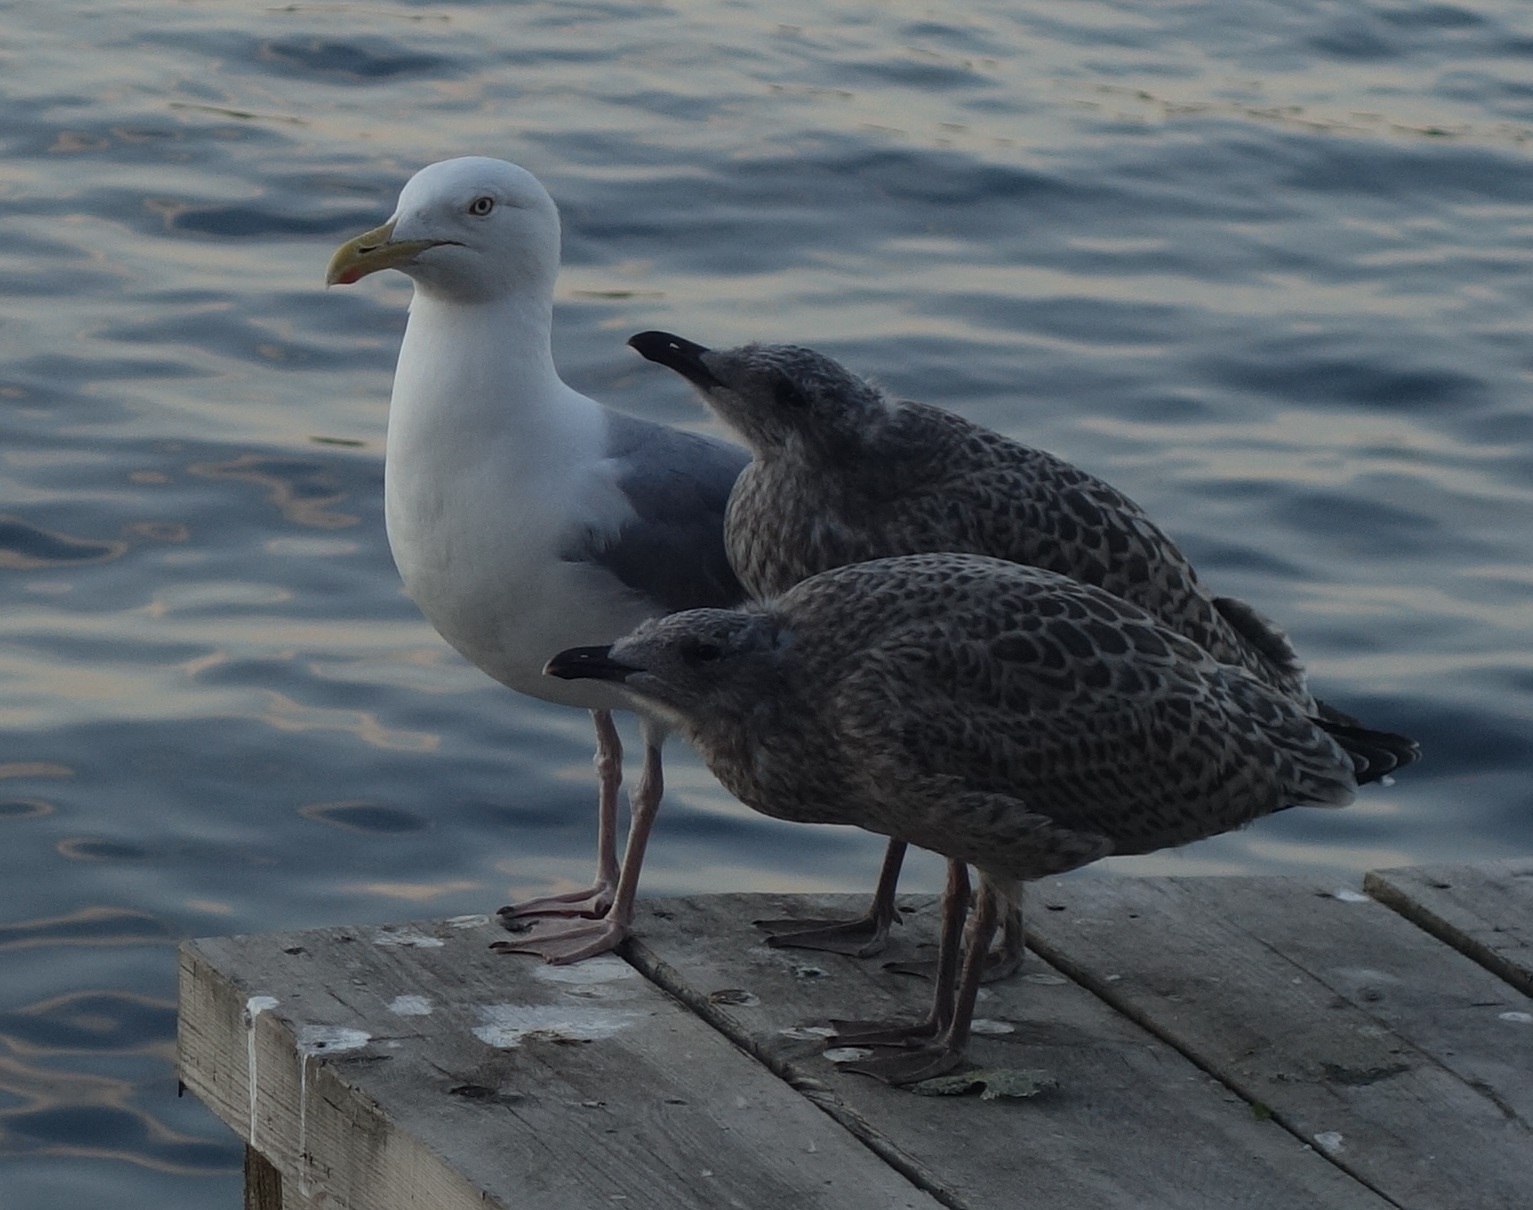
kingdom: Animalia
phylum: Chordata
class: Aves
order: Charadriiformes
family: Laridae
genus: Larus
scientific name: Larus argentatus
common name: Herring gull
